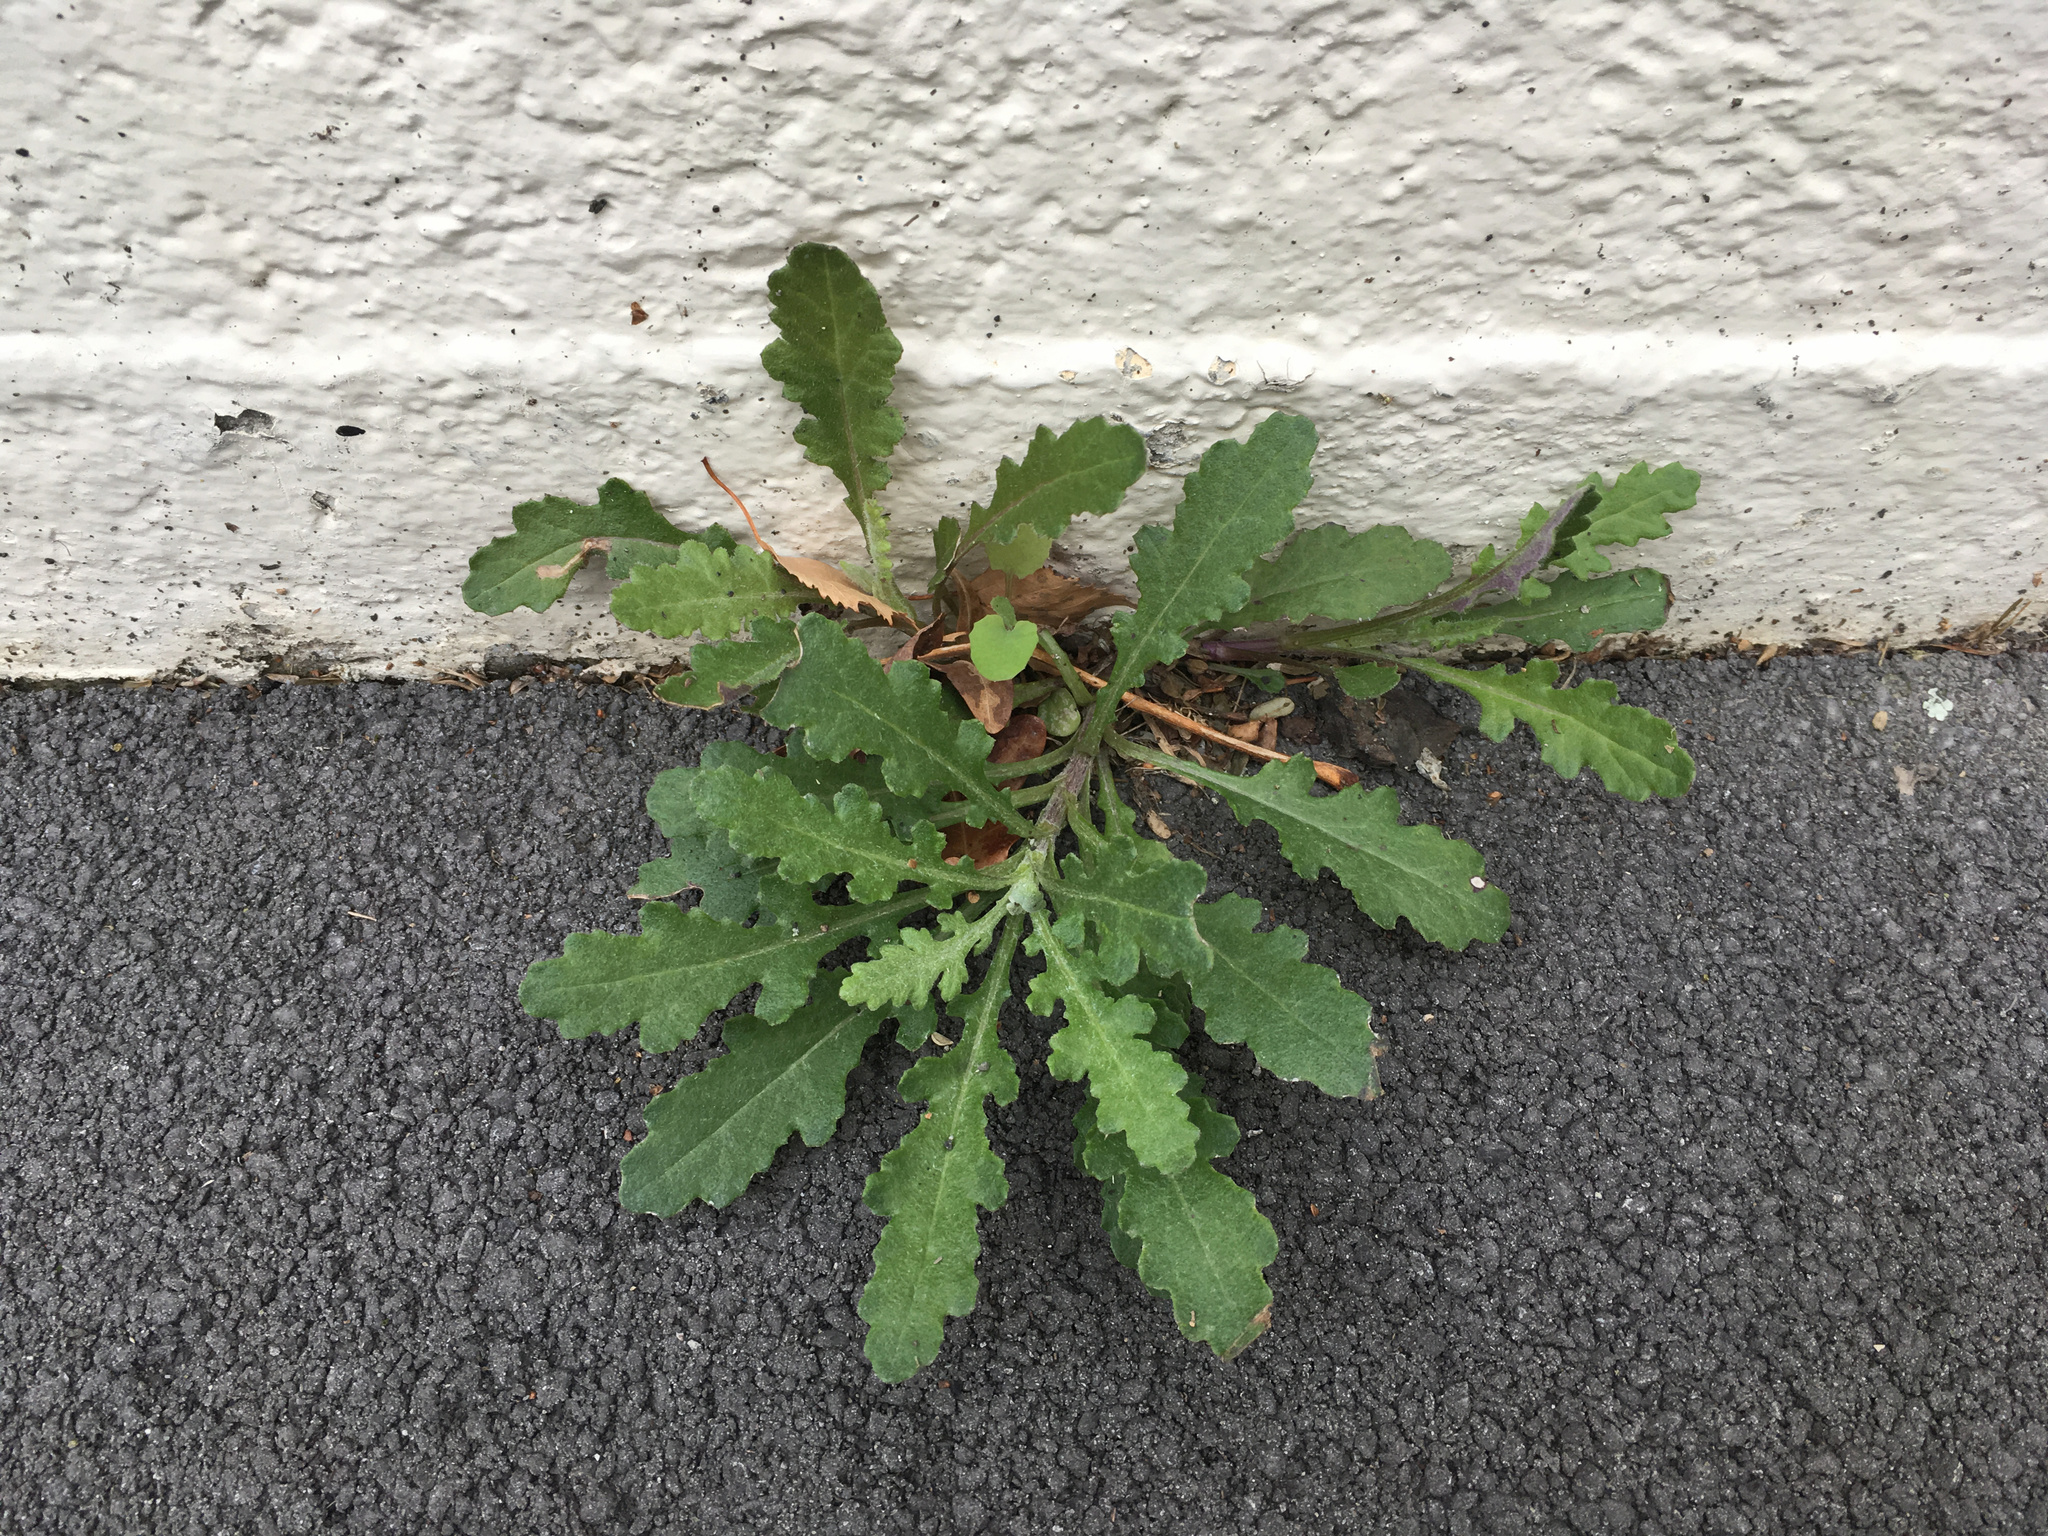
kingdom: Plantae
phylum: Tracheophyta
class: Magnoliopsida
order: Asterales
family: Asteraceae
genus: Senecio
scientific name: Senecio glomeratus
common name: Cutleaf burnweed
